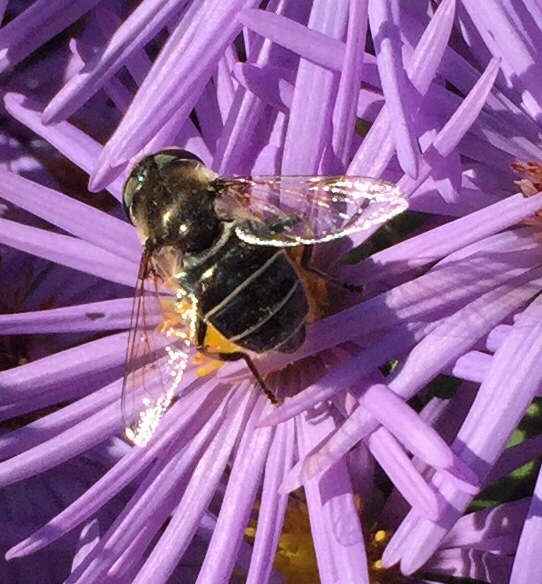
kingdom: Animalia
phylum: Arthropoda
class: Insecta
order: Diptera
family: Syrphidae
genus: Eristalis
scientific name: Eristalis dimidiata
